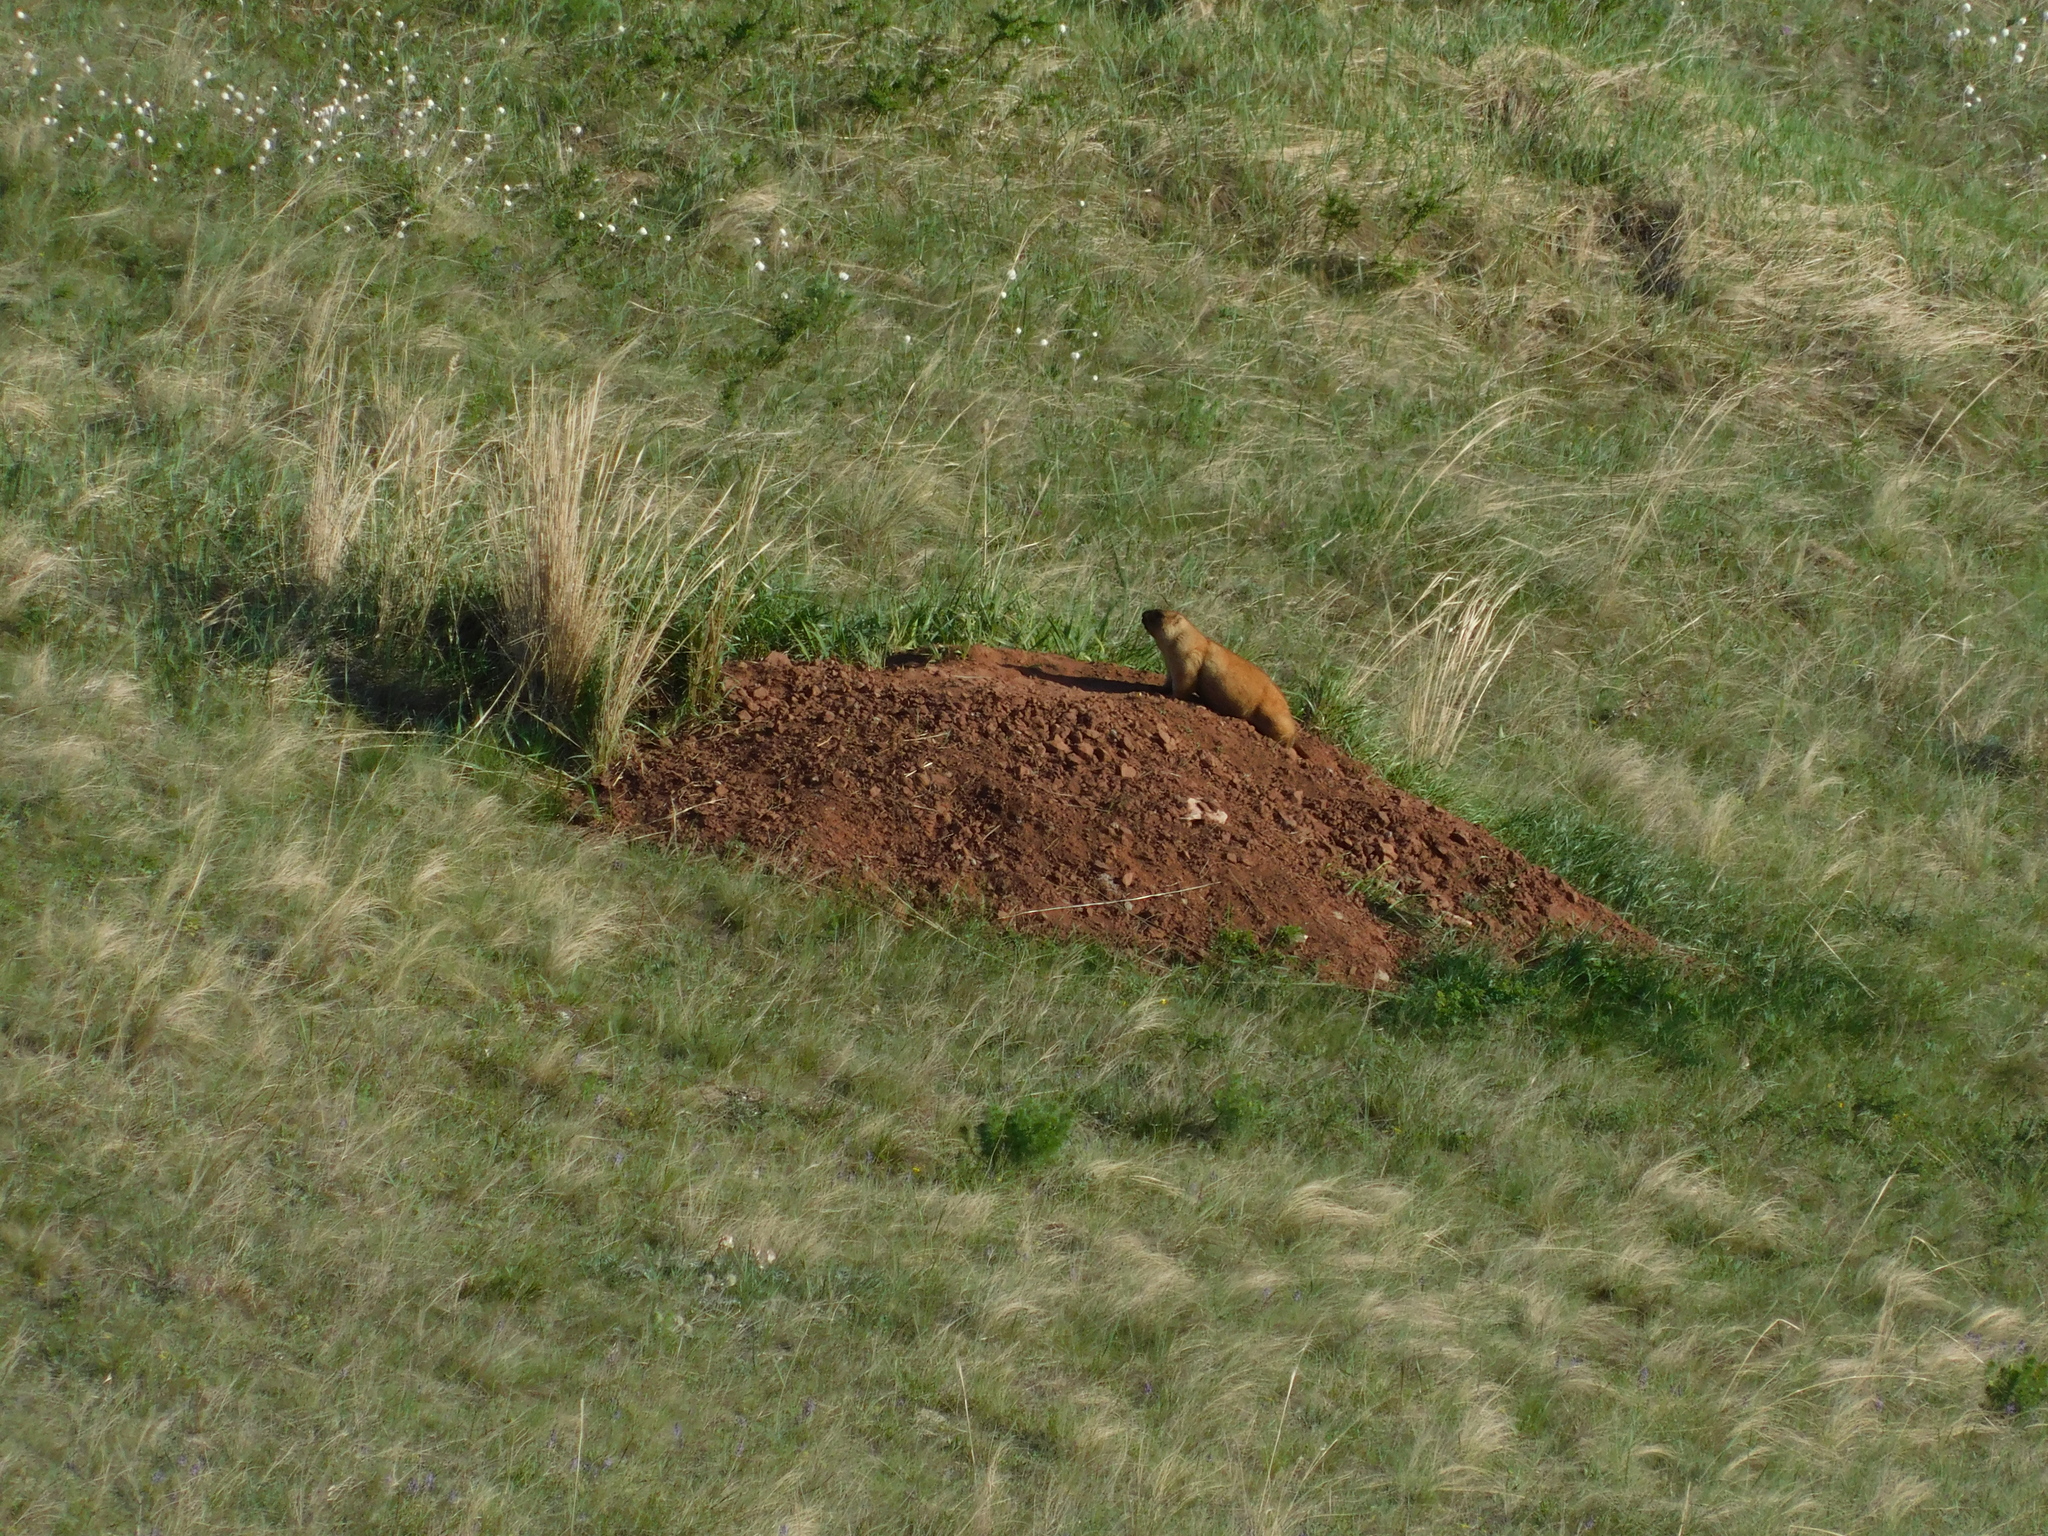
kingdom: Animalia
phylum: Chordata
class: Mammalia
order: Rodentia
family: Sciuridae
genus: Marmota
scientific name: Marmota bobak
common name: Bobak marmot
